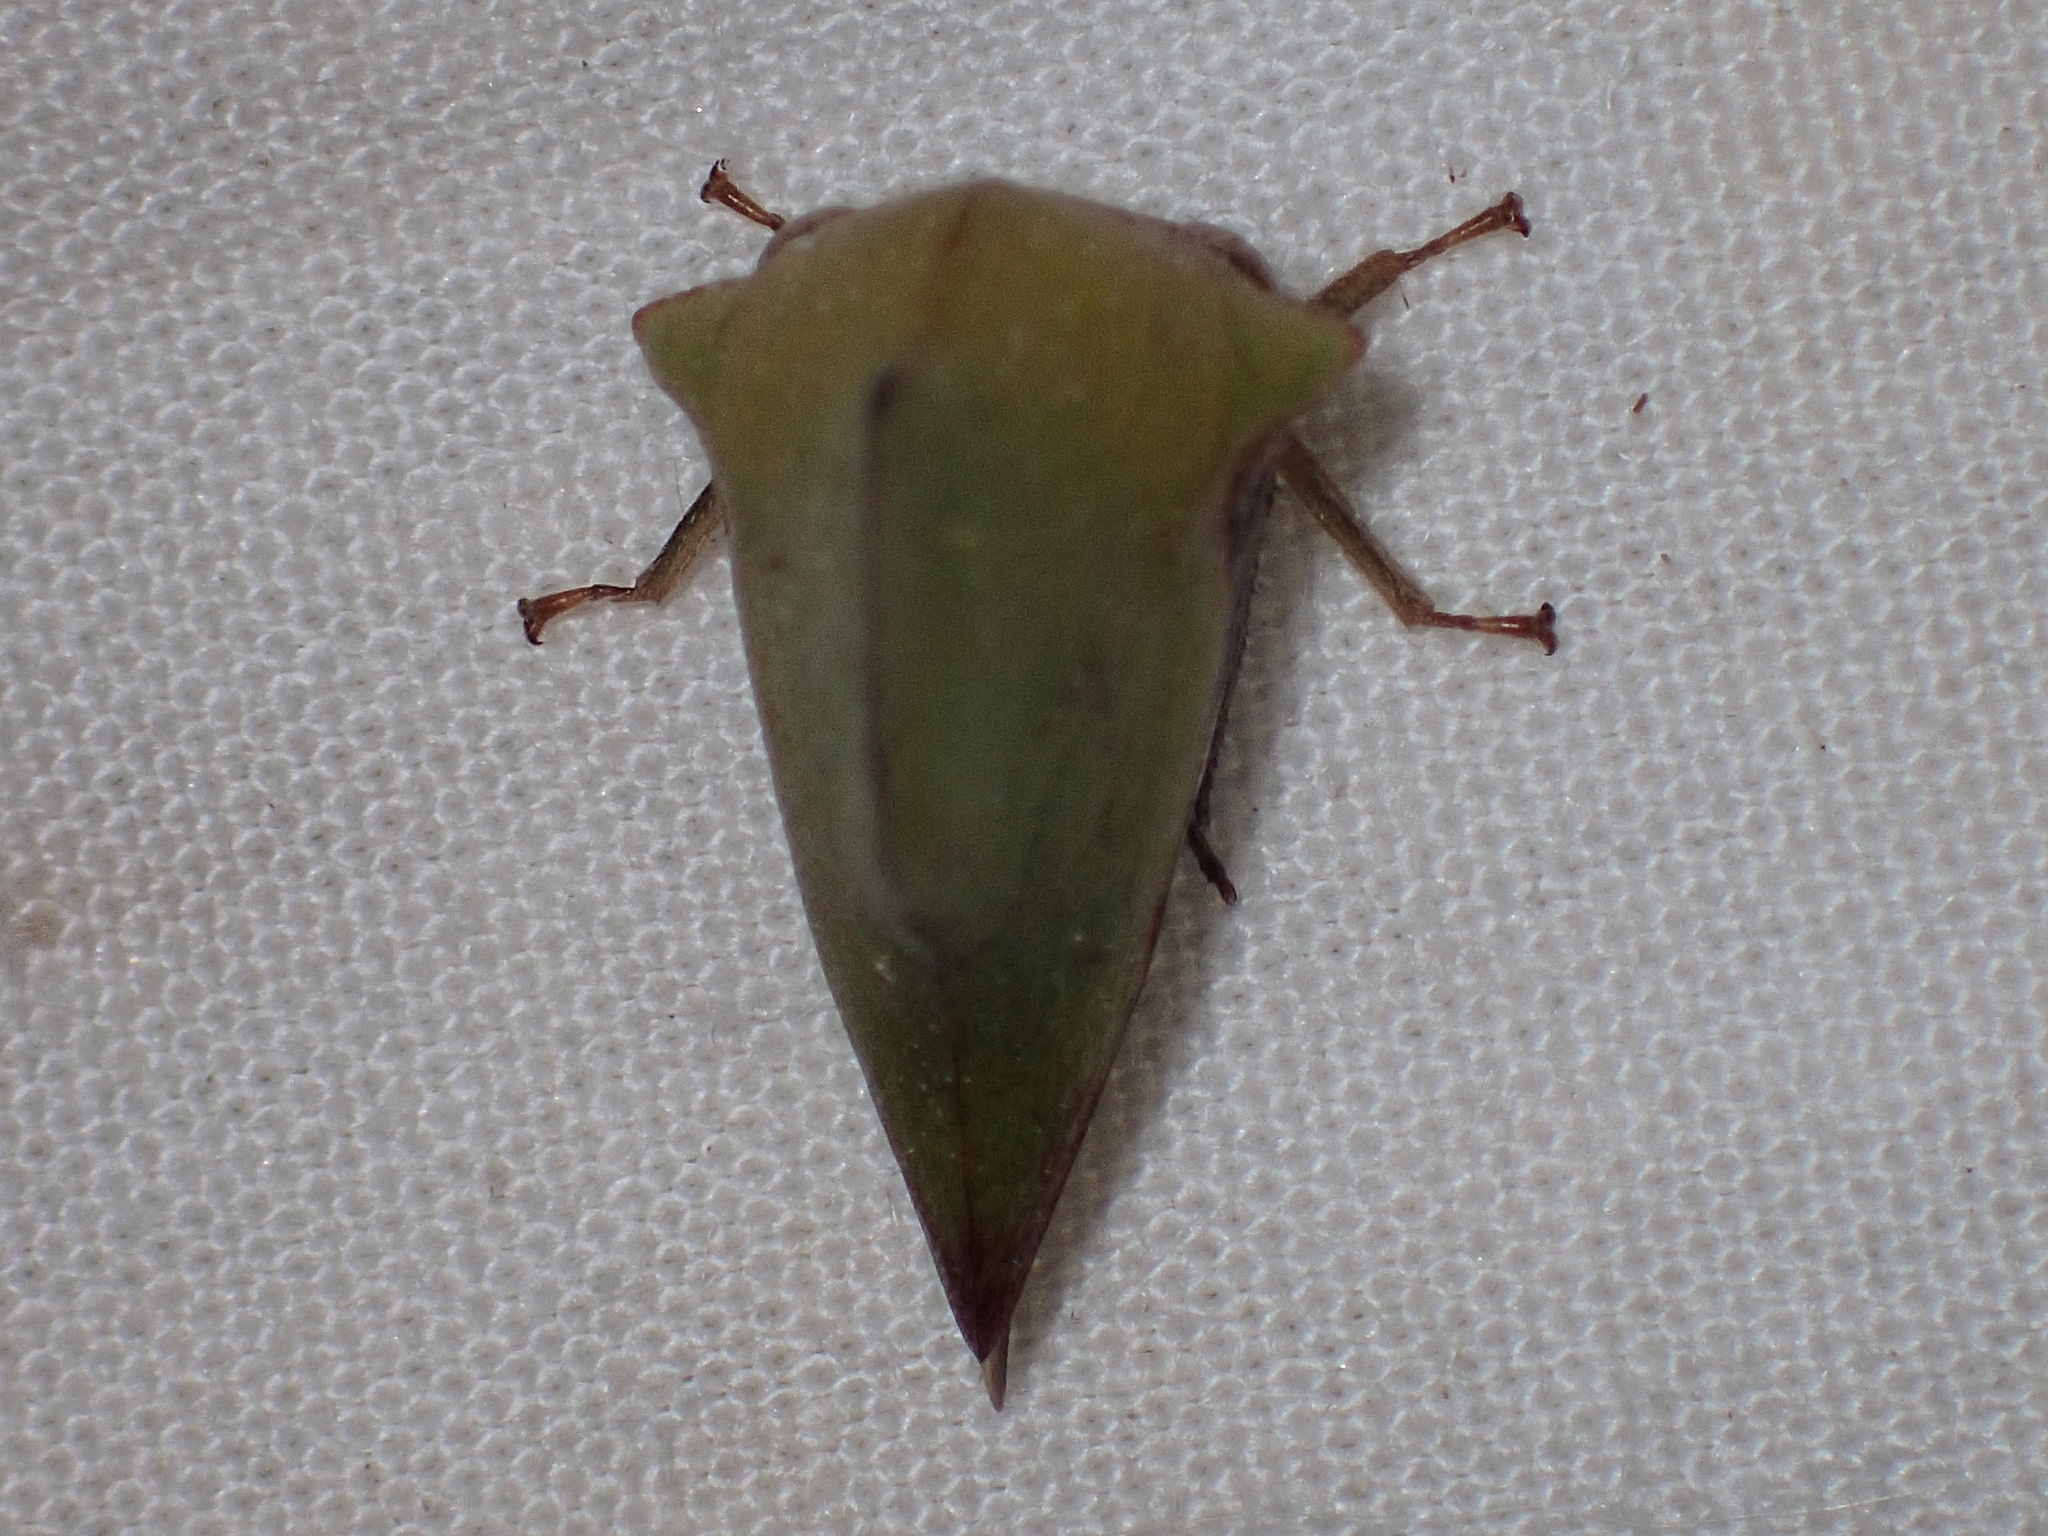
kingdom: Animalia
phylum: Arthropoda
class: Insecta
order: Hemiptera
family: Membracidae
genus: Helonica
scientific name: Helonica excelsa
